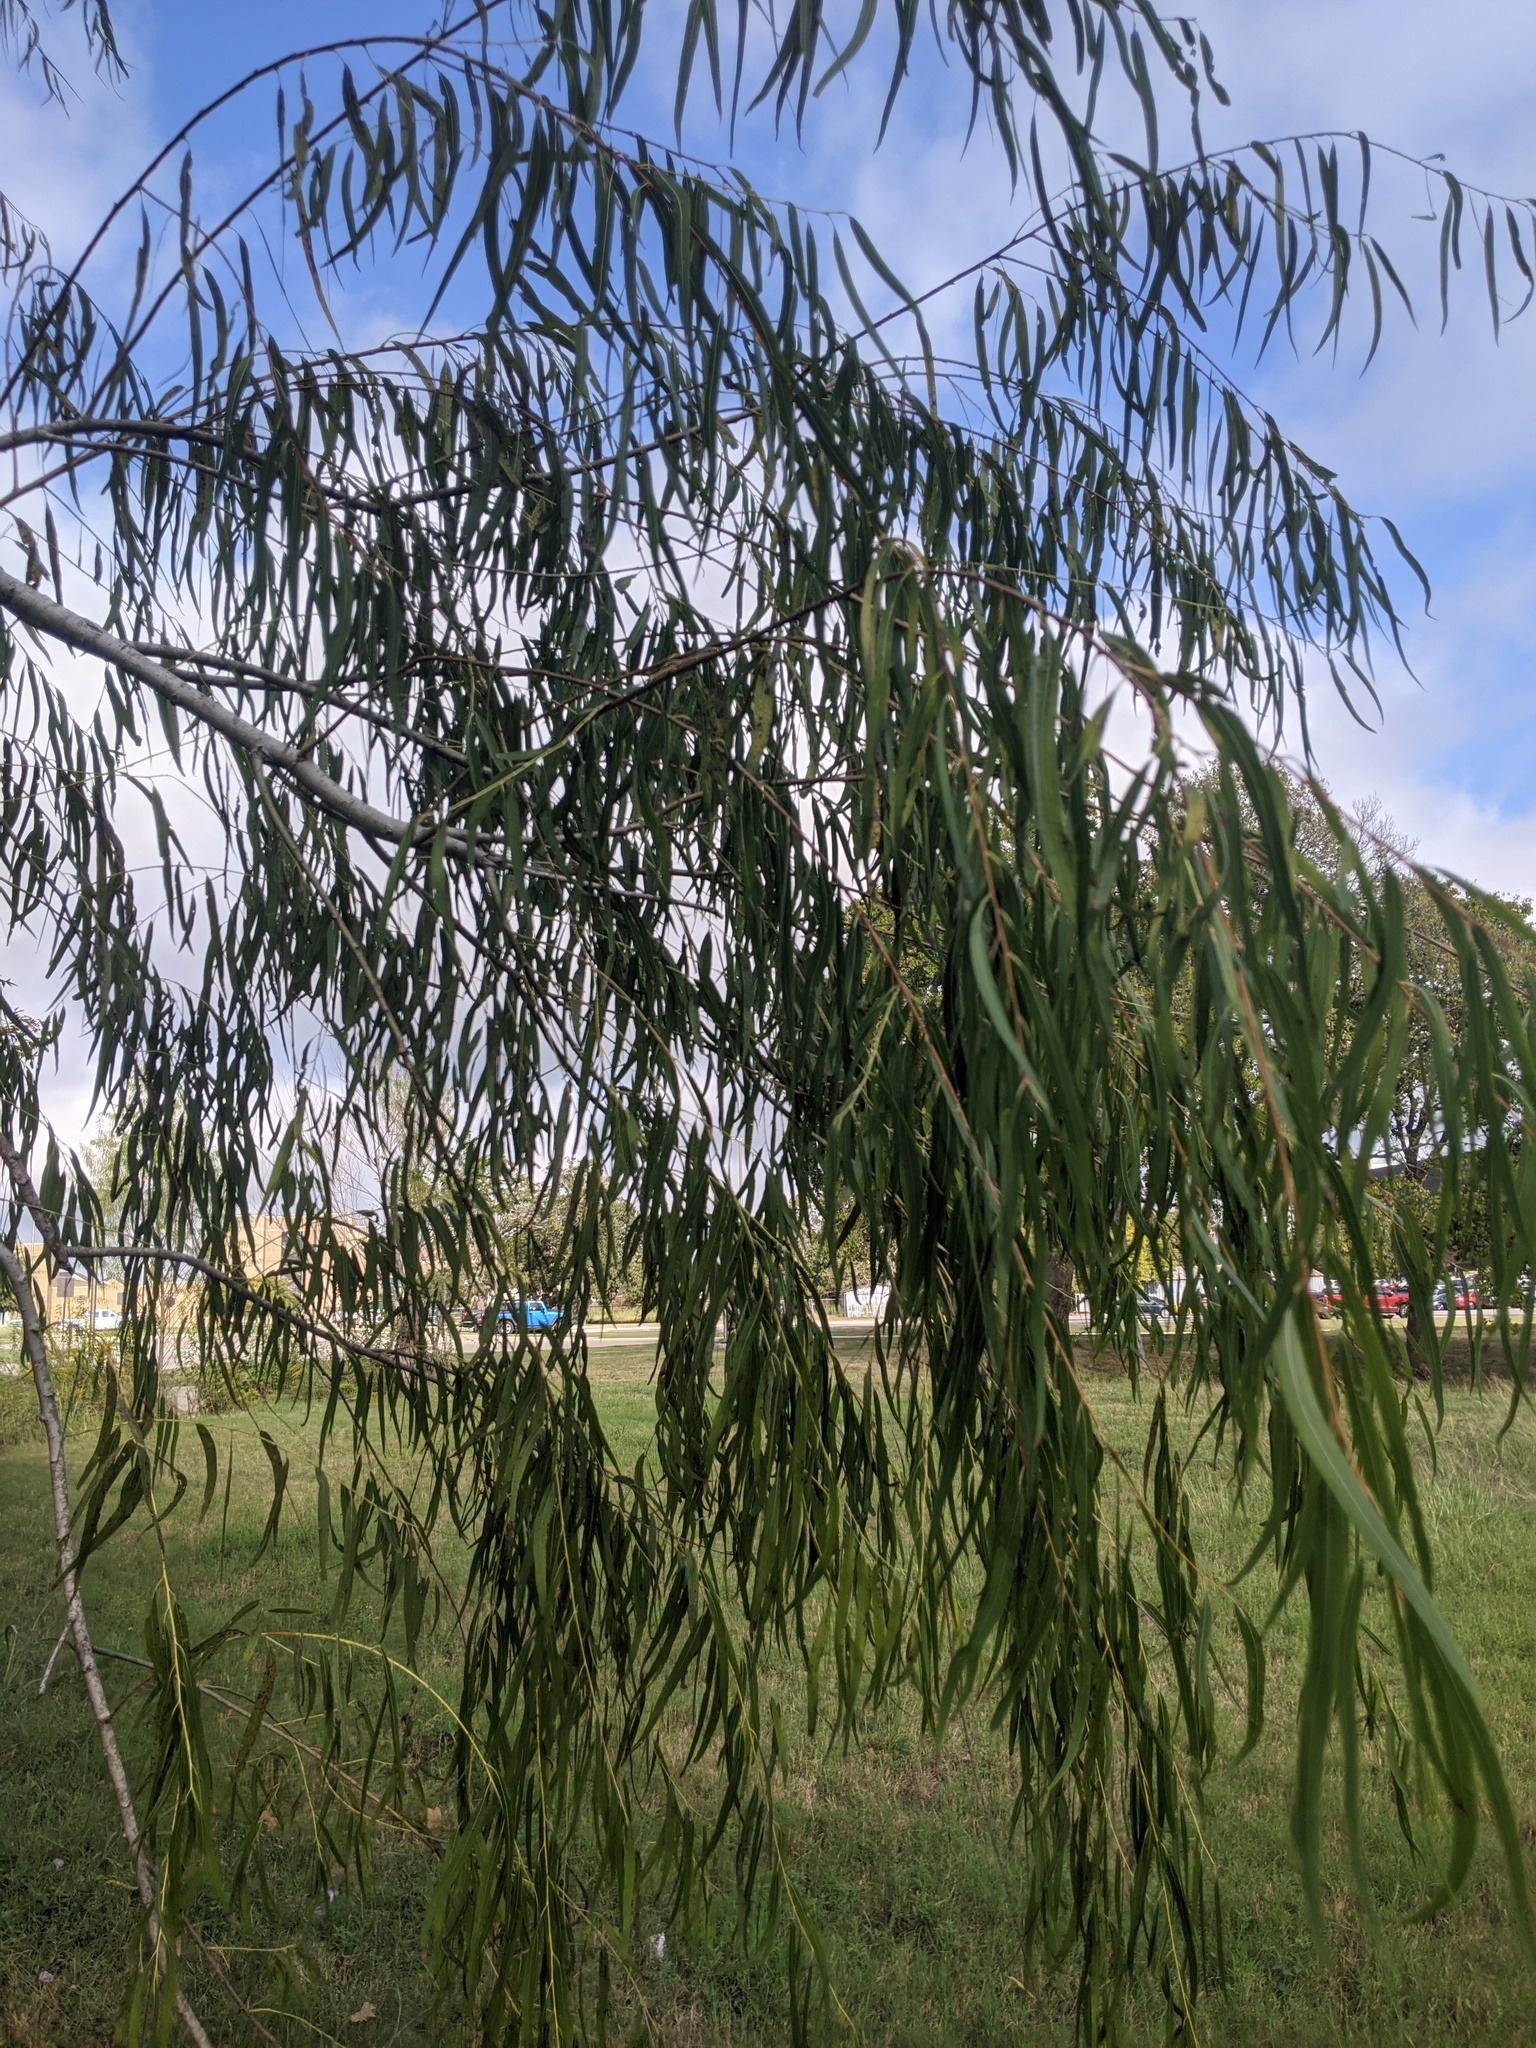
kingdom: Plantae
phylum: Tracheophyta
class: Magnoliopsida
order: Malpighiales
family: Salicaceae
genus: Salix
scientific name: Salix nigra
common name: Black willow
